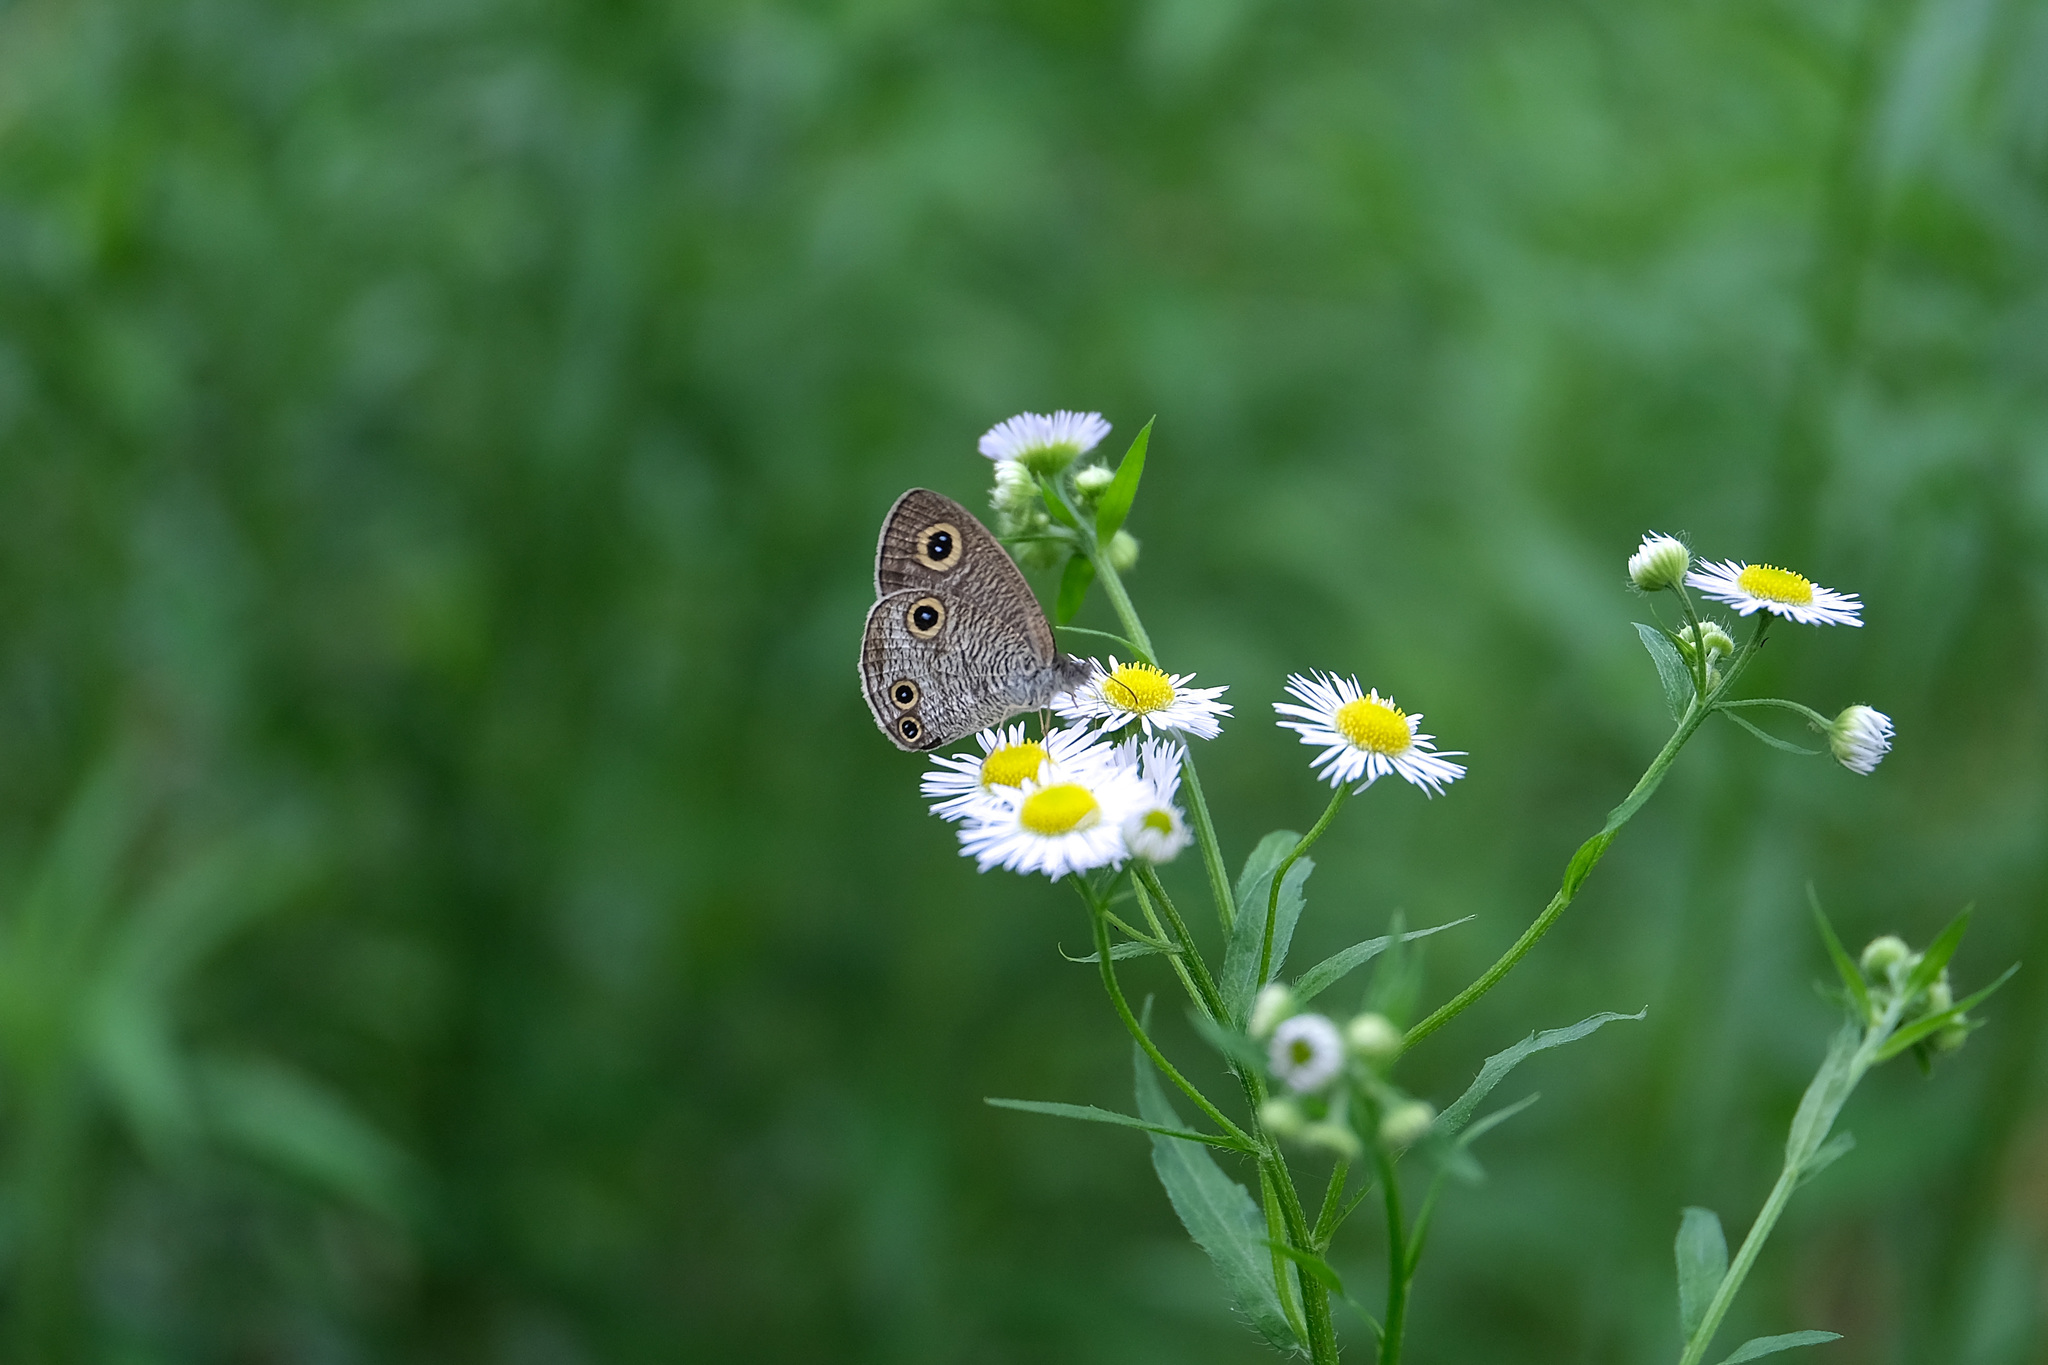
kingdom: Animalia
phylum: Arthropoda
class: Insecta
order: Lepidoptera
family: Nymphalidae
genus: Ypthima
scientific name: Ypthima multistriata
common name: Striated ringlet
